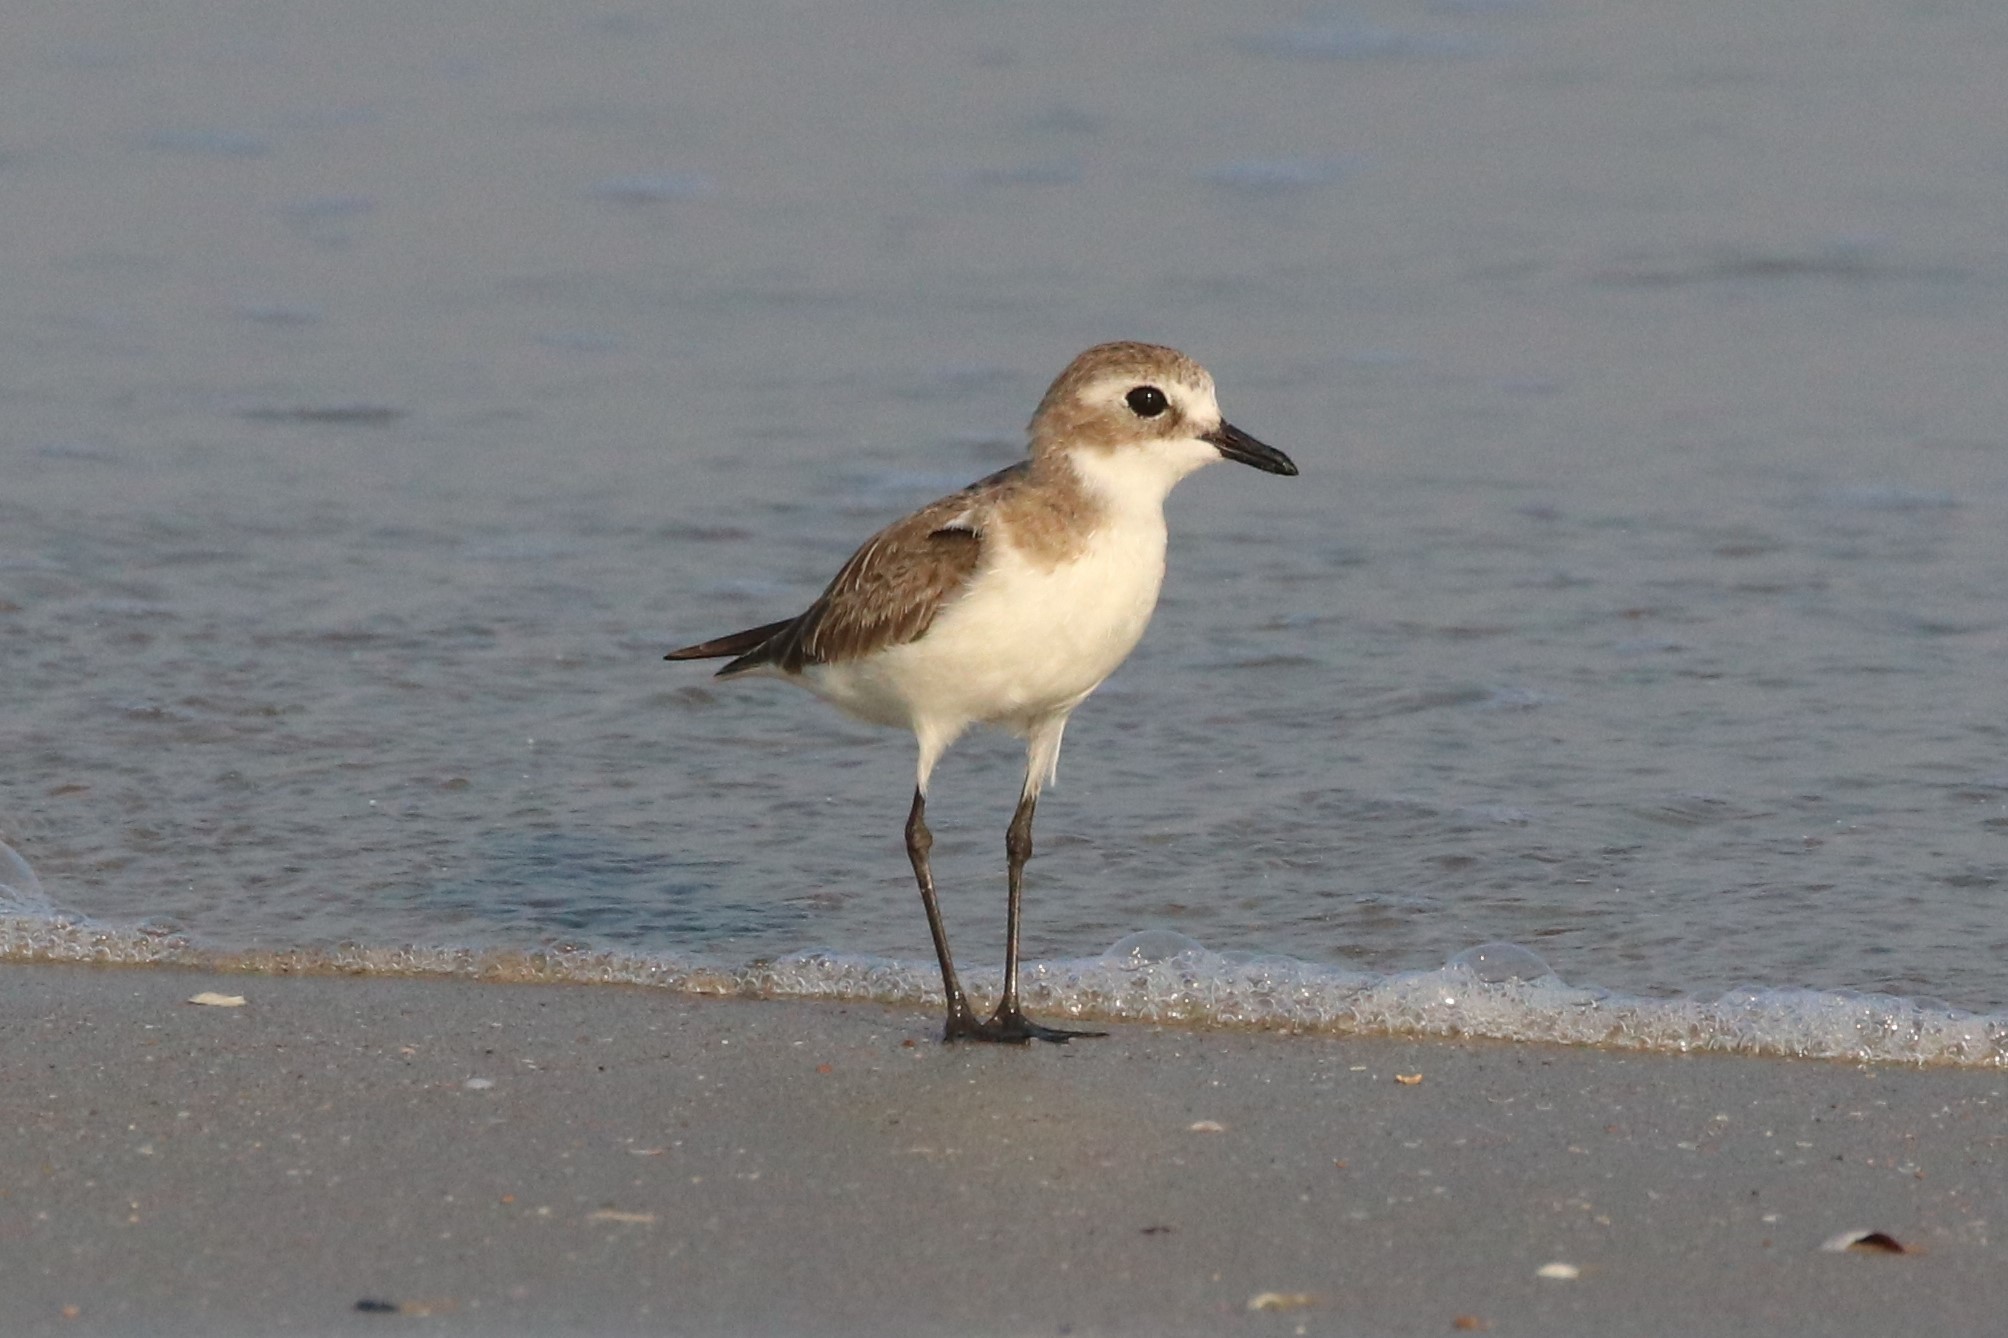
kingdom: Animalia
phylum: Chordata
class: Aves
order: Charadriiformes
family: Charadriidae
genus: Charadrius
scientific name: Charadrius leschenaultii
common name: Greater sand plover
